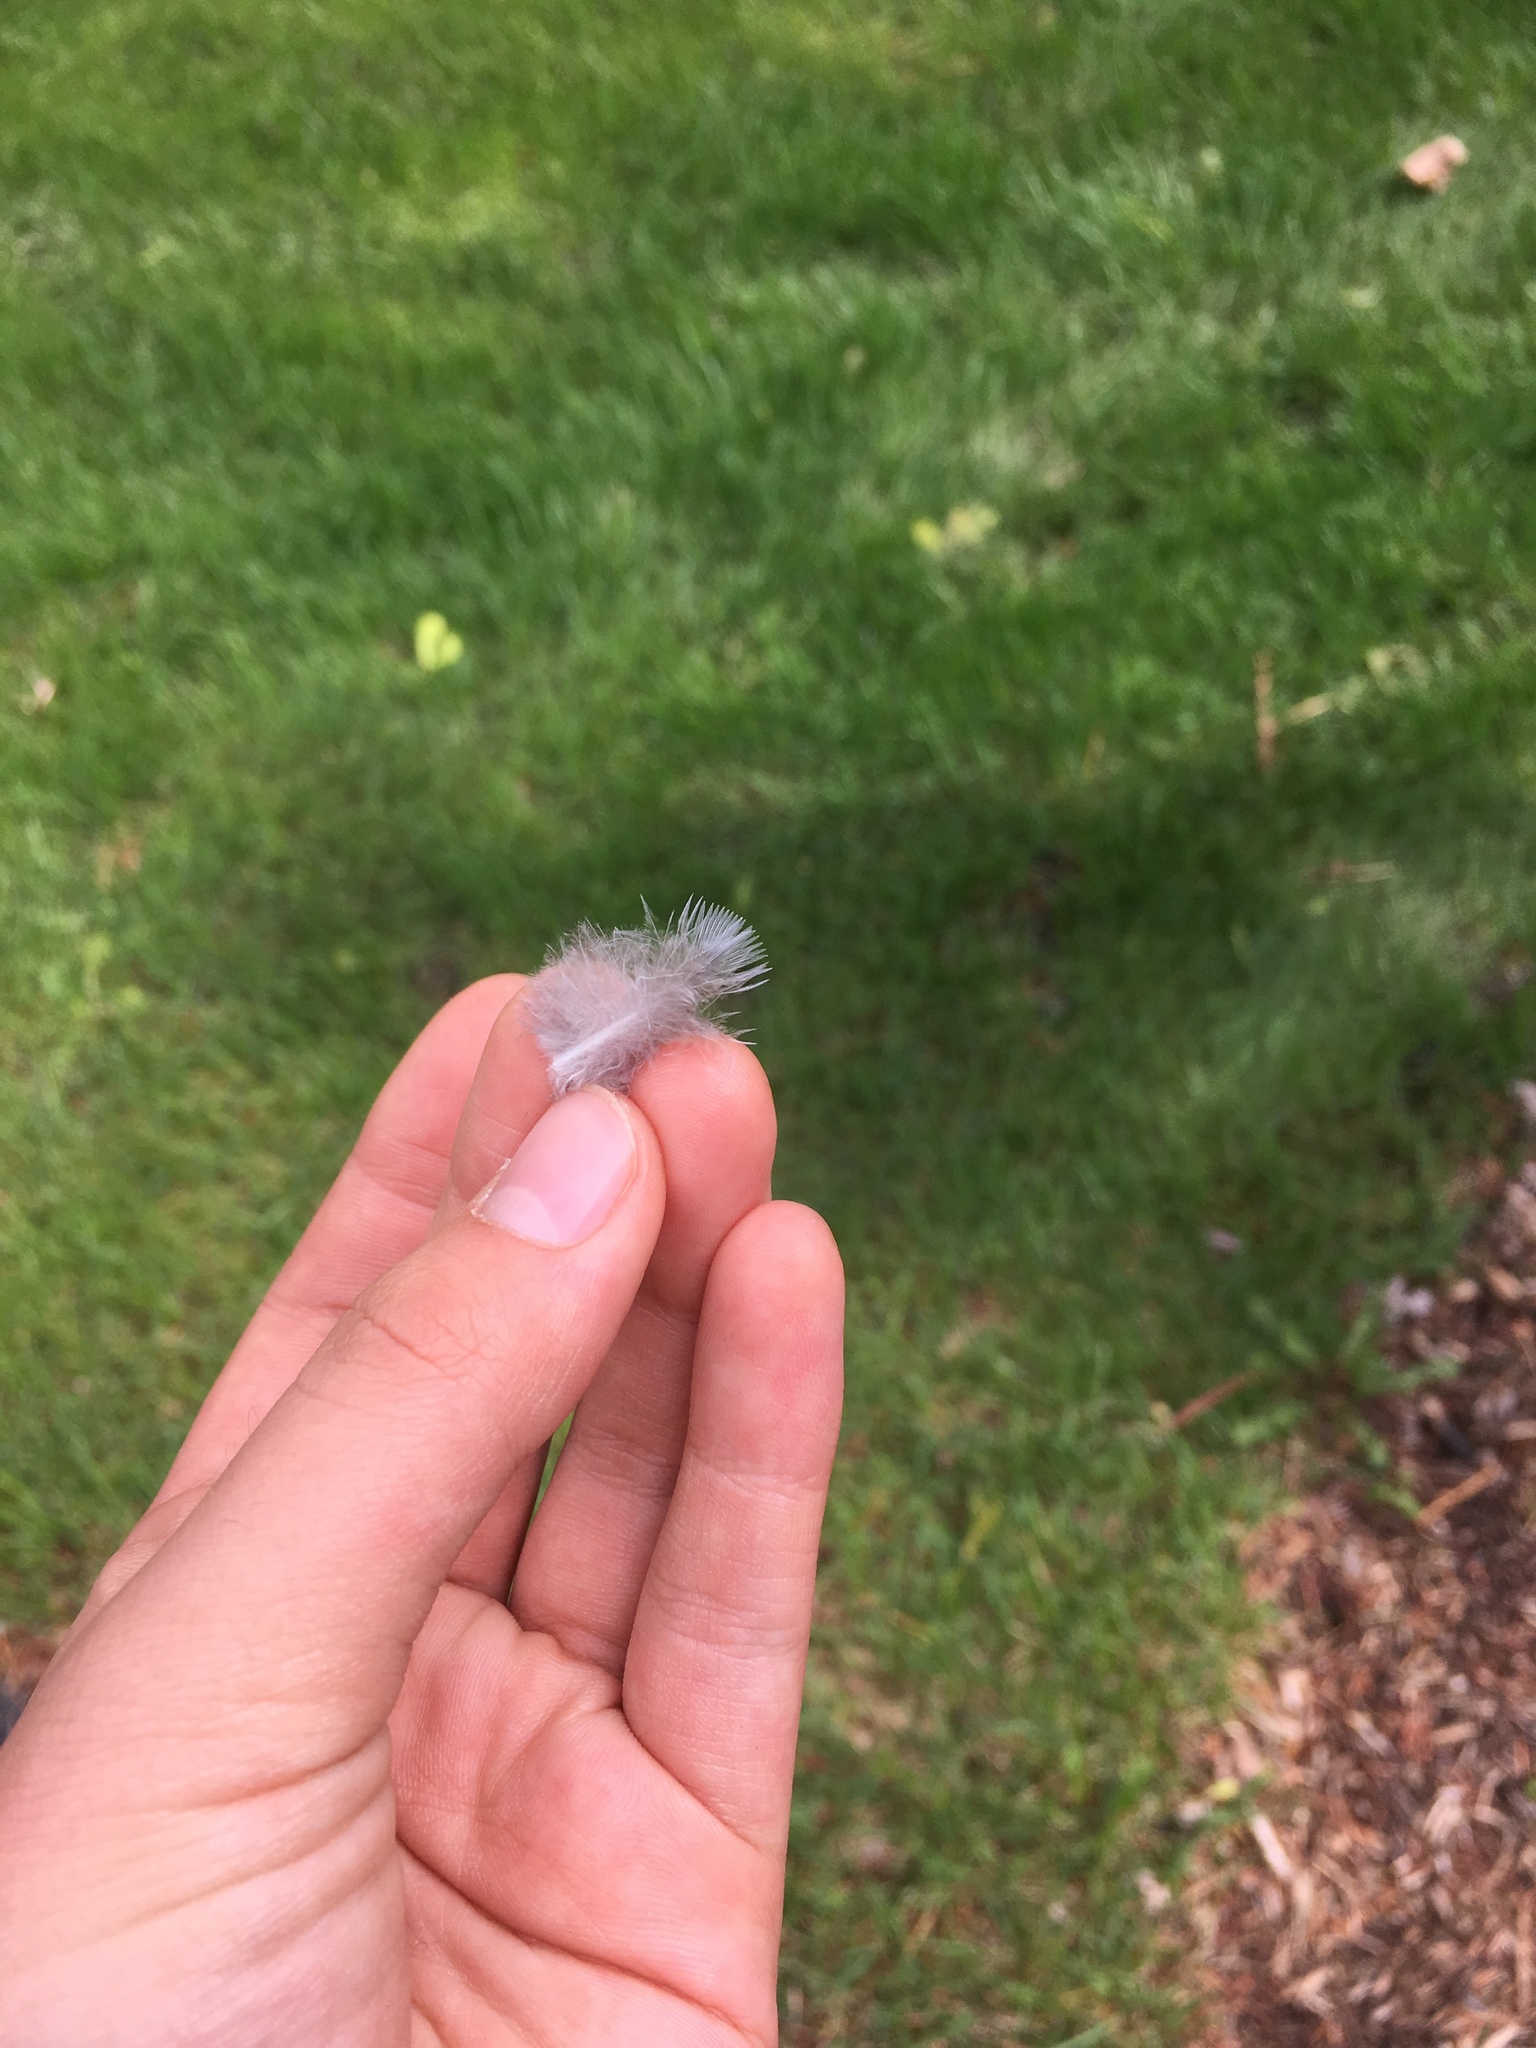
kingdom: Animalia
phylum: Chordata
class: Aves
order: Columbiformes
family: Columbidae
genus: Zenaida
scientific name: Zenaida macroura
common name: Mourning dove
